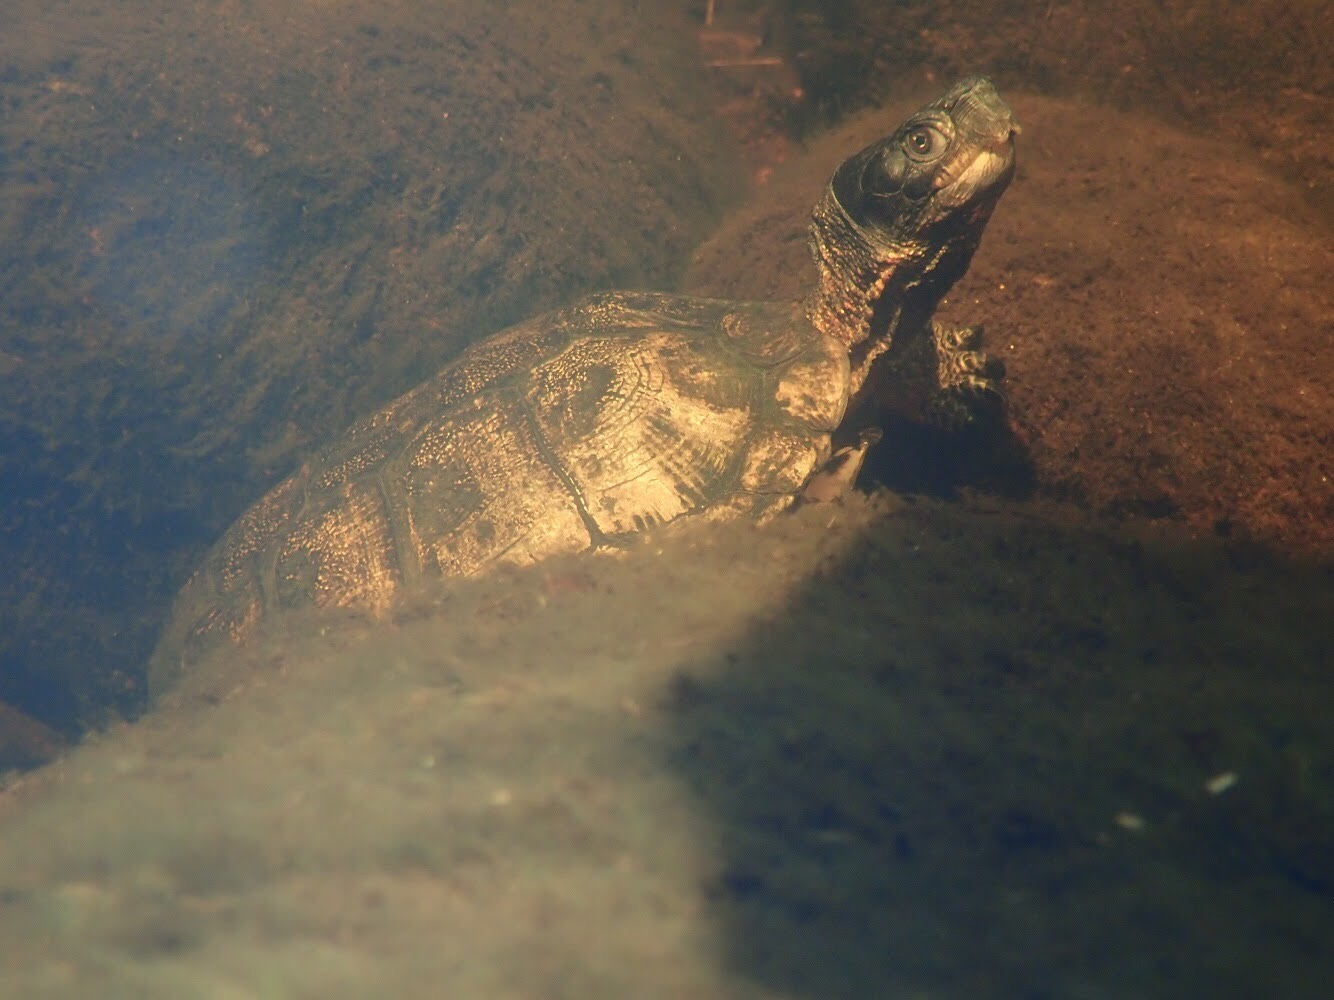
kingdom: Animalia
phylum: Chordata
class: Testudines
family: Emydidae
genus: Glyptemys
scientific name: Glyptemys insculpta
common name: Wood turtle
